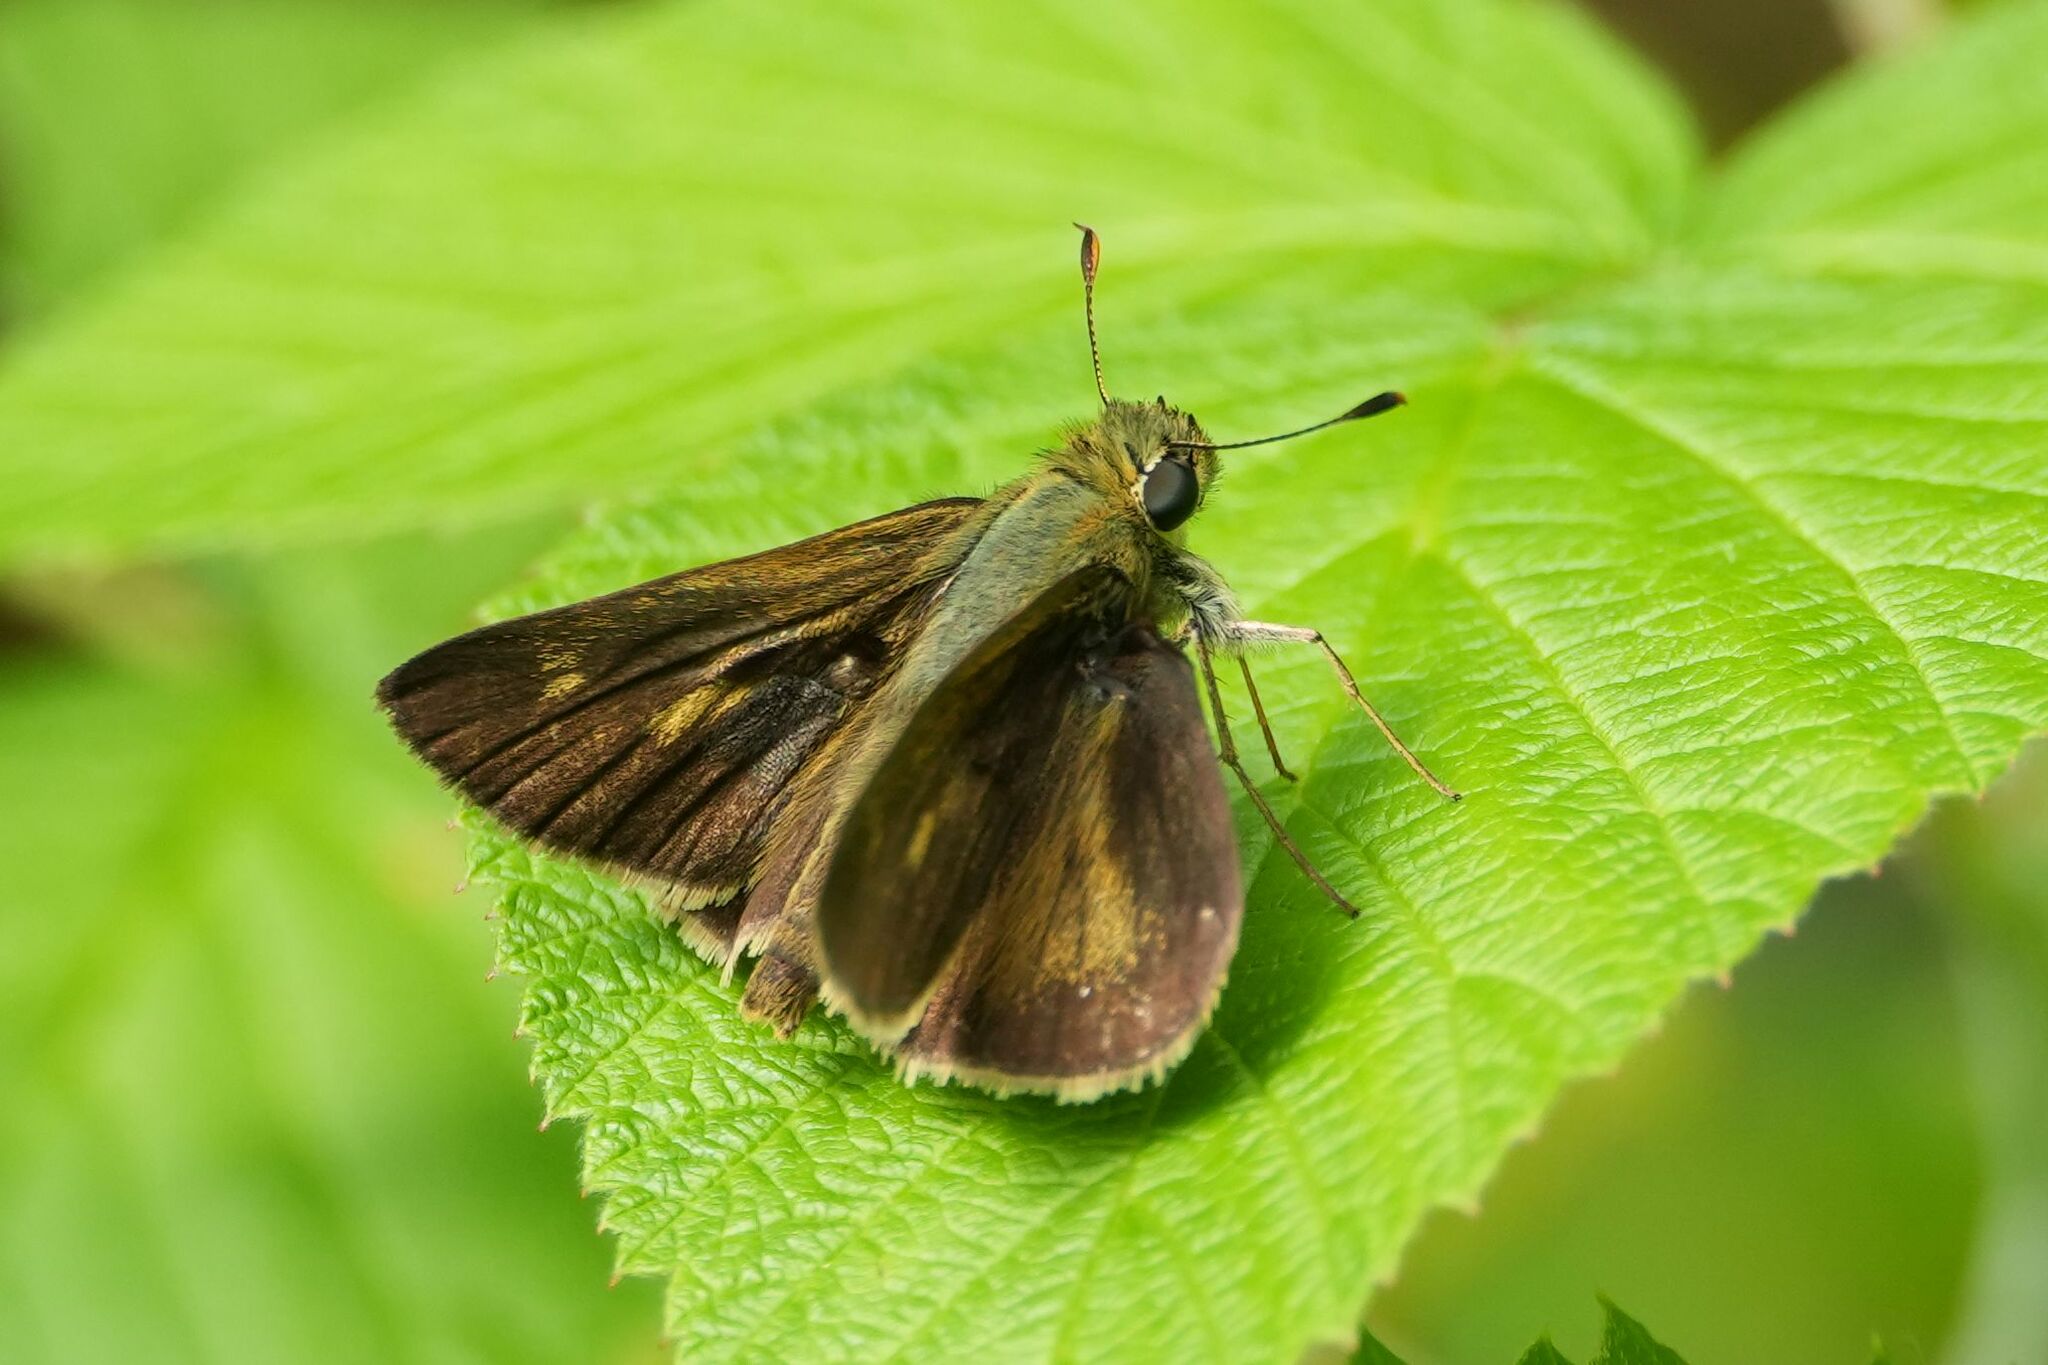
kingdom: Animalia
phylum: Arthropoda
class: Insecta
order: Lepidoptera
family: Hesperiidae
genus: Polites
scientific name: Polites egeremet
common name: Northern broken-dash
